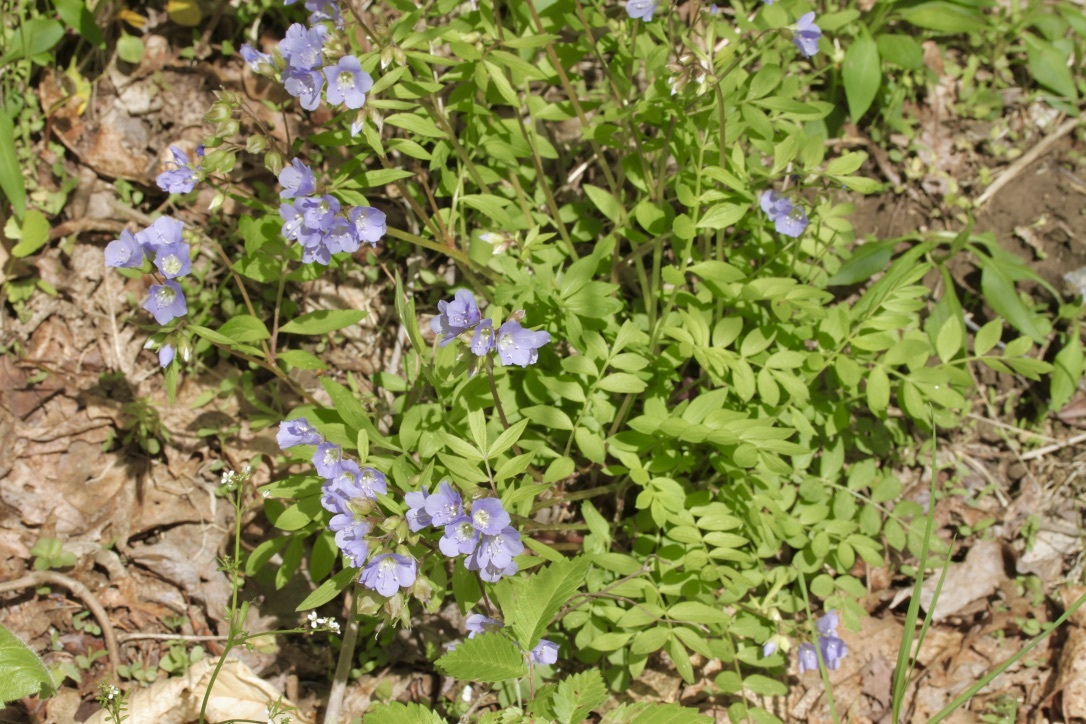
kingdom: Plantae
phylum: Tracheophyta
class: Magnoliopsida
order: Ericales
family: Polemoniaceae
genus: Polemonium
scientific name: Polemonium reptans
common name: Creeping jacob's-ladder
